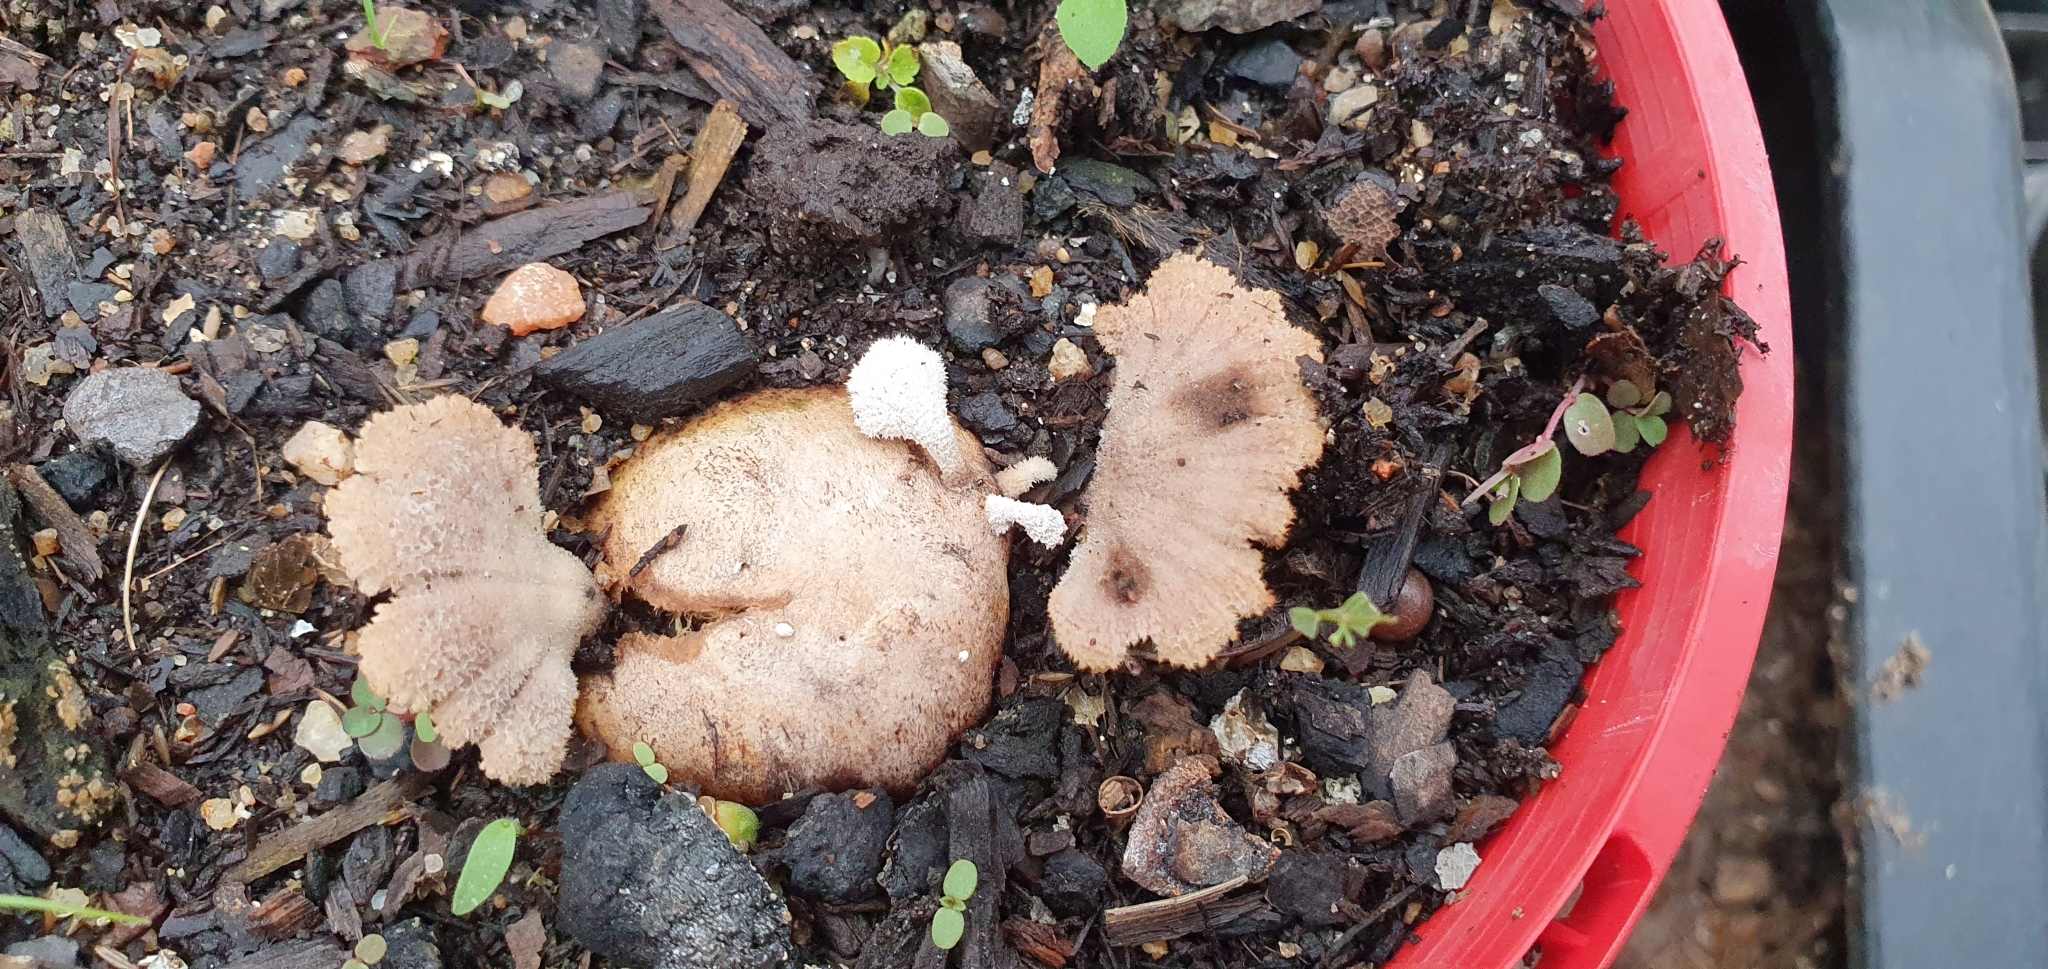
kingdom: Fungi
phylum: Basidiomycota
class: Agaricomycetes
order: Agaricales
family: Schizophyllaceae
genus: Schizophyllum
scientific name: Schizophyllum commune
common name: Common porecrust
